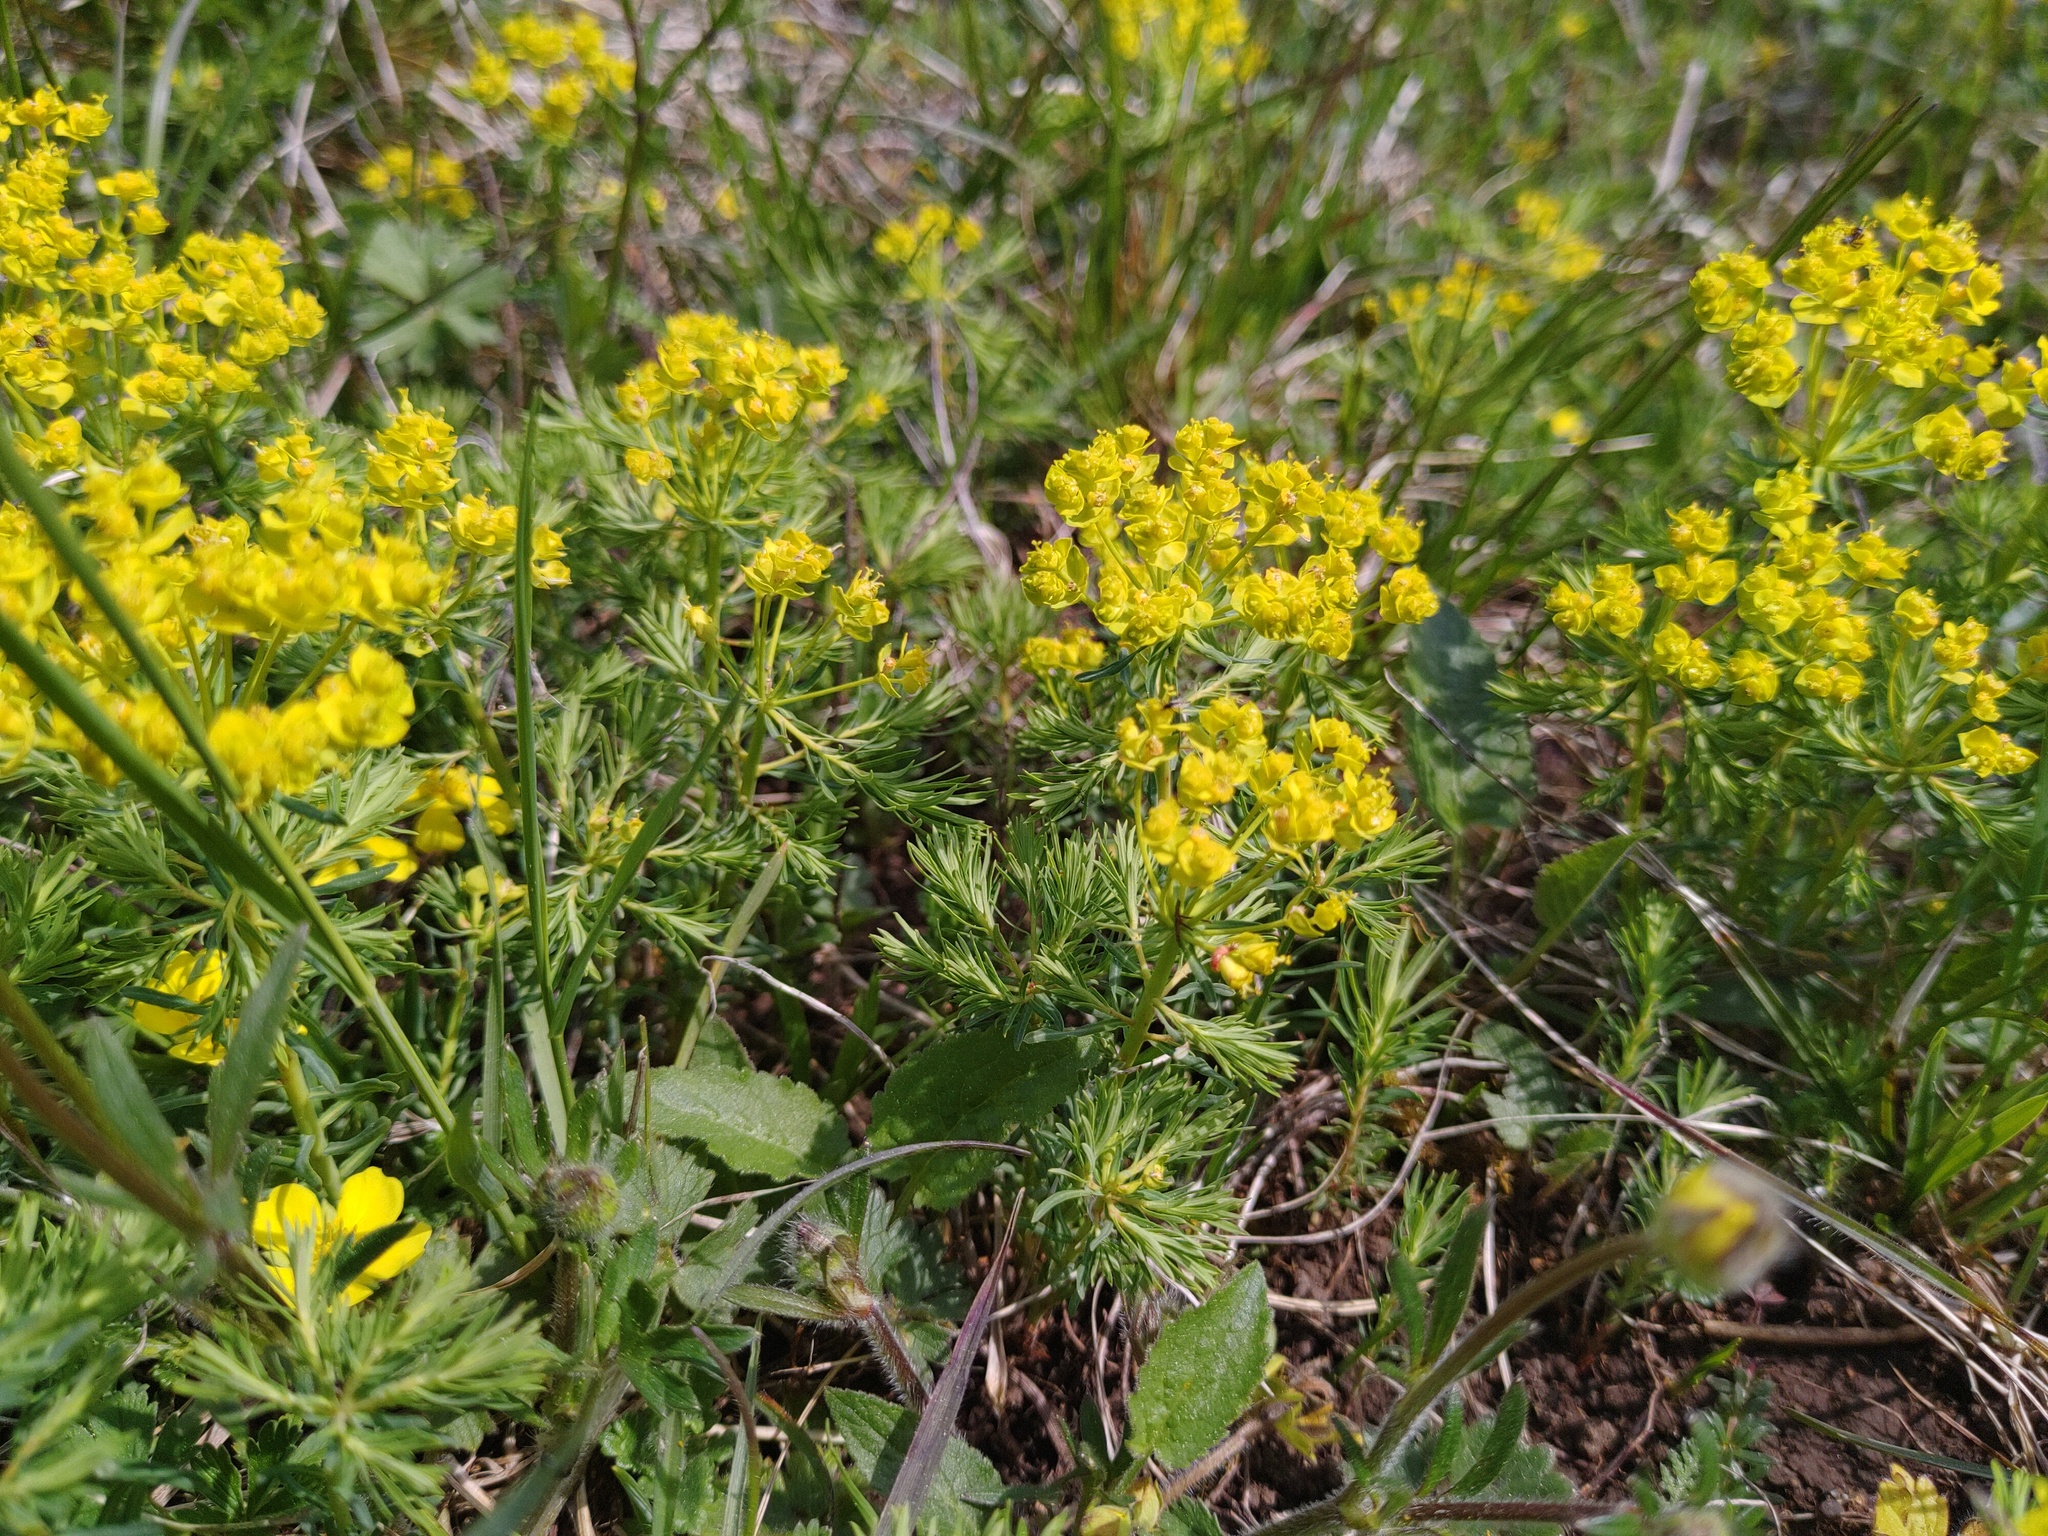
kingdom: Plantae
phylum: Tracheophyta
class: Magnoliopsida
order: Malpighiales
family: Euphorbiaceae
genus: Euphorbia
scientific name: Euphorbia cyparissias
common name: Cypress spurge
